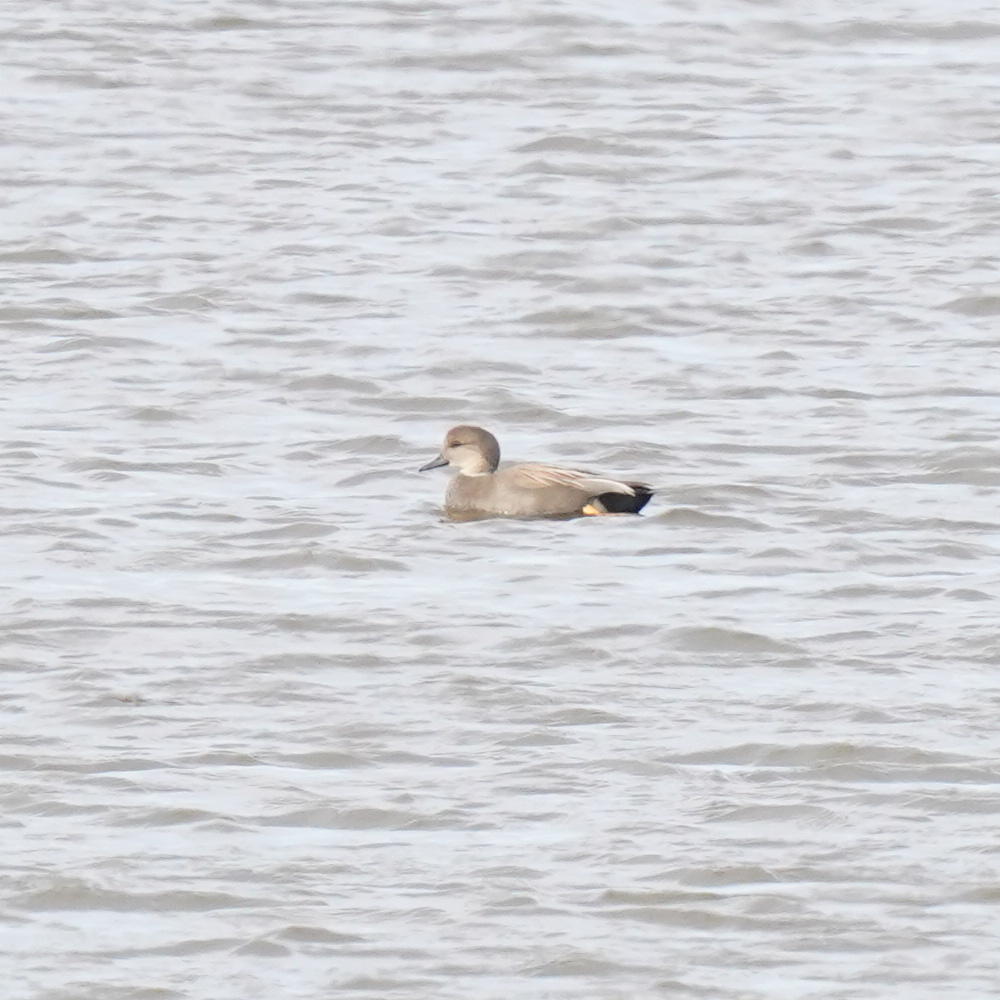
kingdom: Animalia
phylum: Chordata
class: Aves
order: Anseriformes
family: Anatidae
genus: Mareca
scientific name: Mareca strepera
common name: Gadwall
